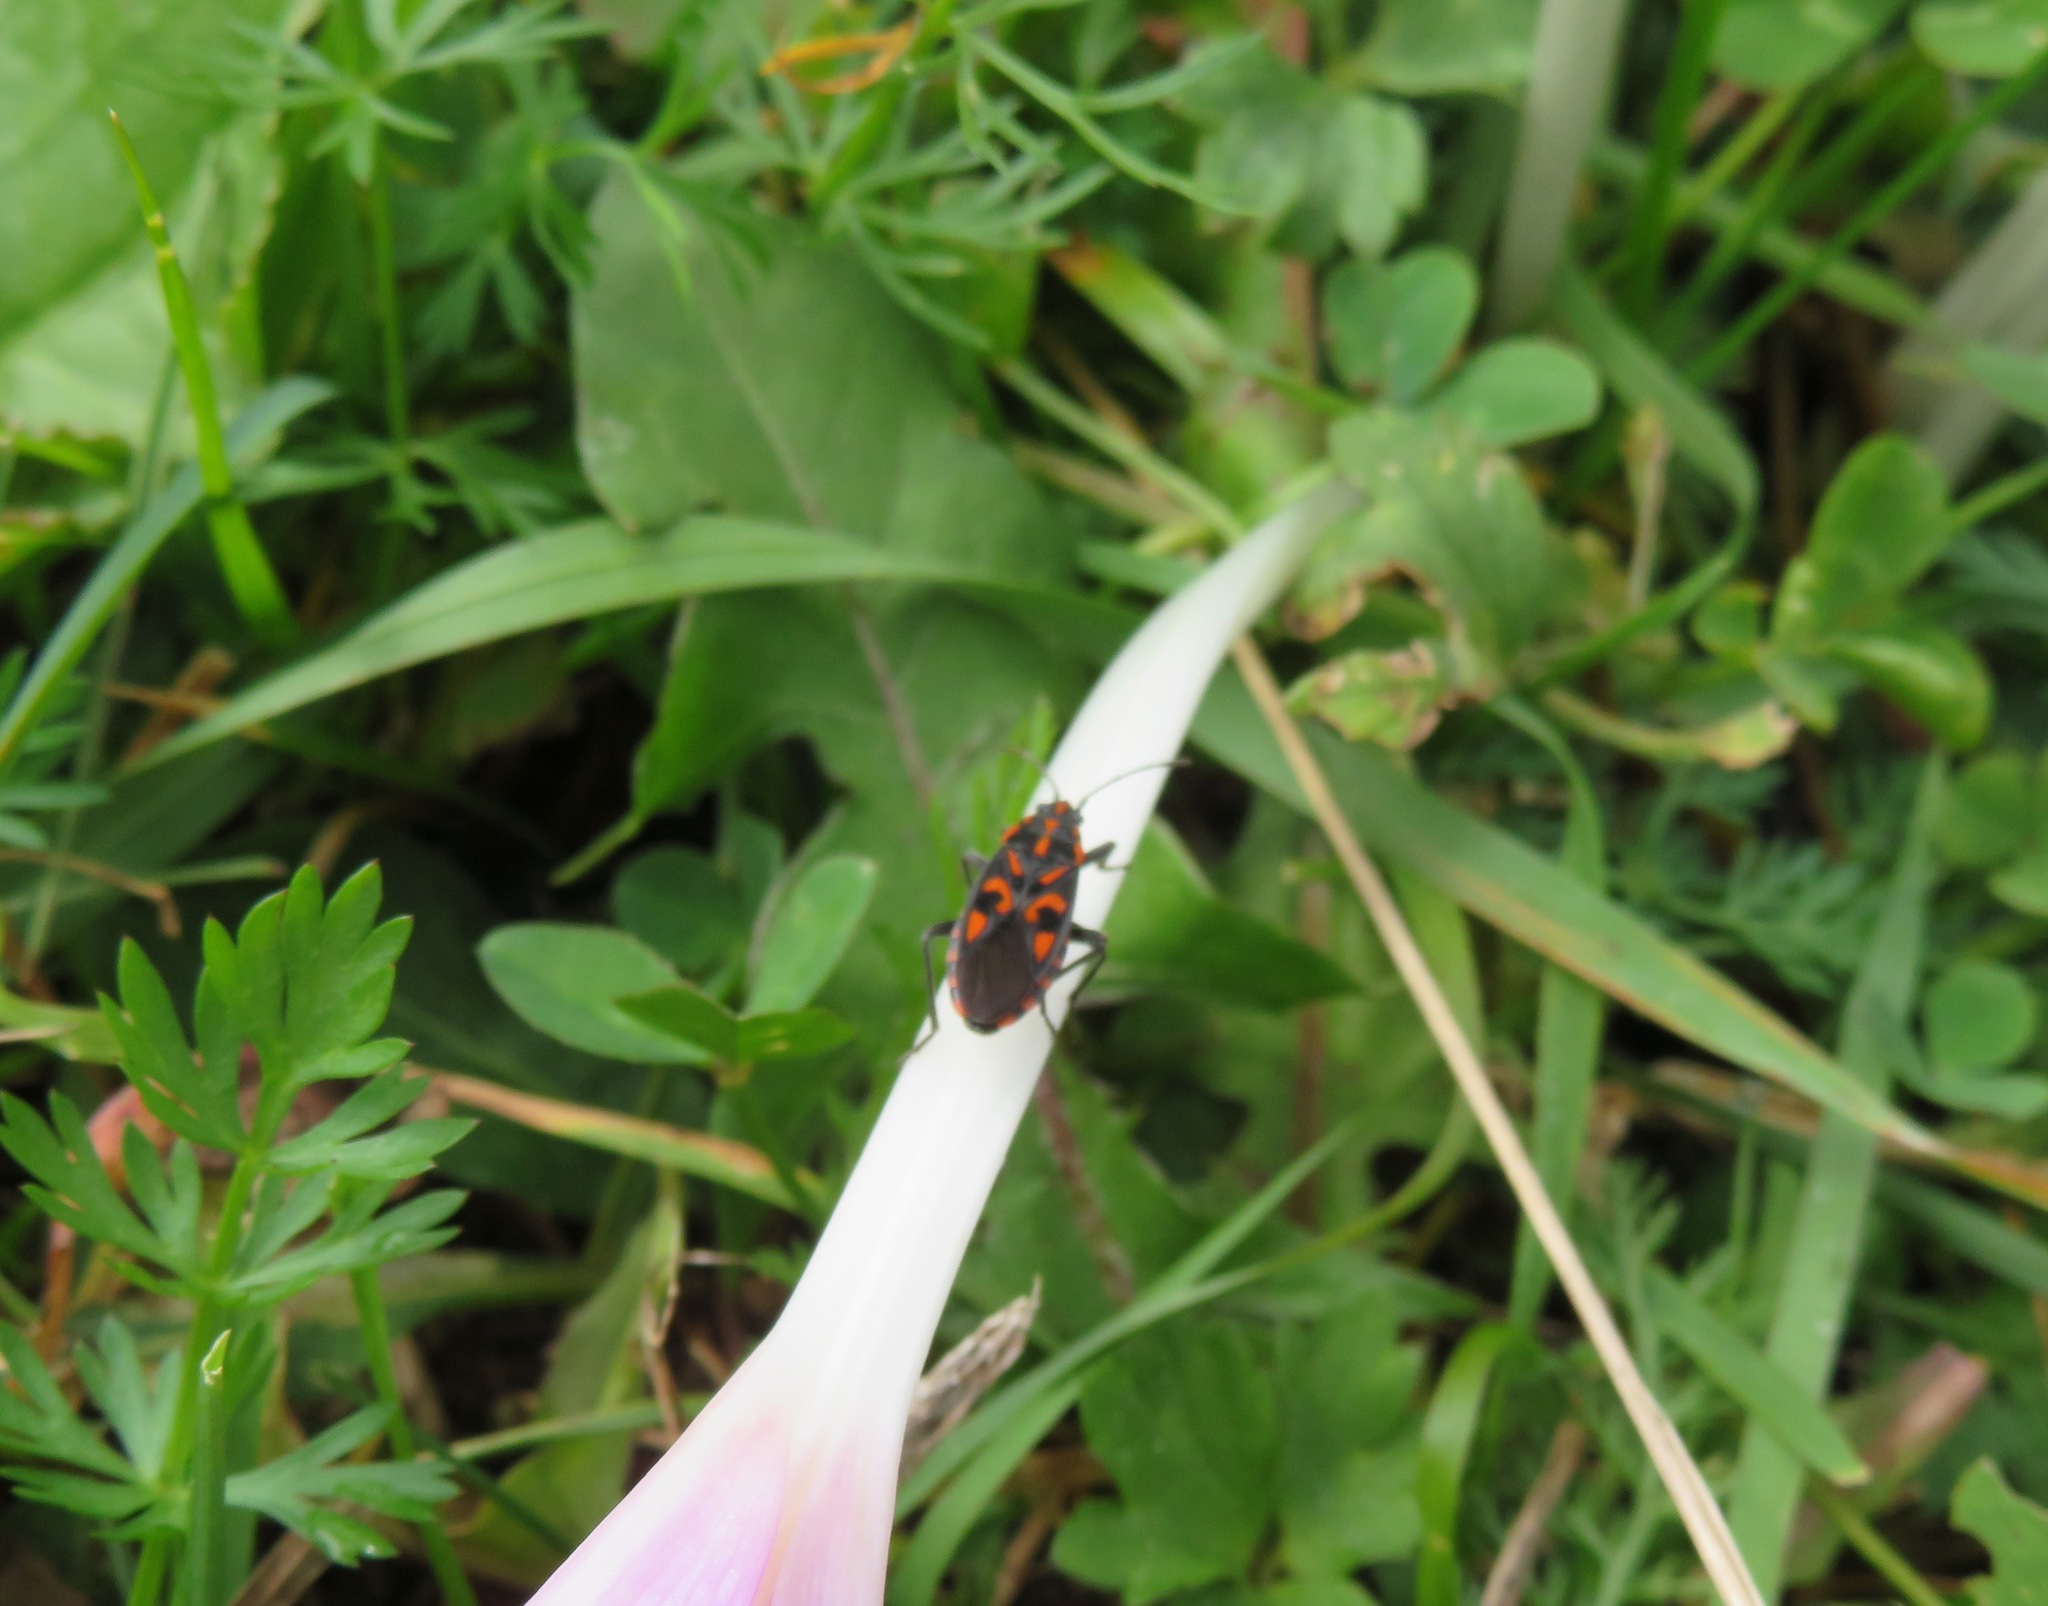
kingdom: Animalia
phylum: Arthropoda
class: Insecta
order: Hemiptera
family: Lygaeidae
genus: Spilostethus
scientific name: Spilostethus saxatilis
